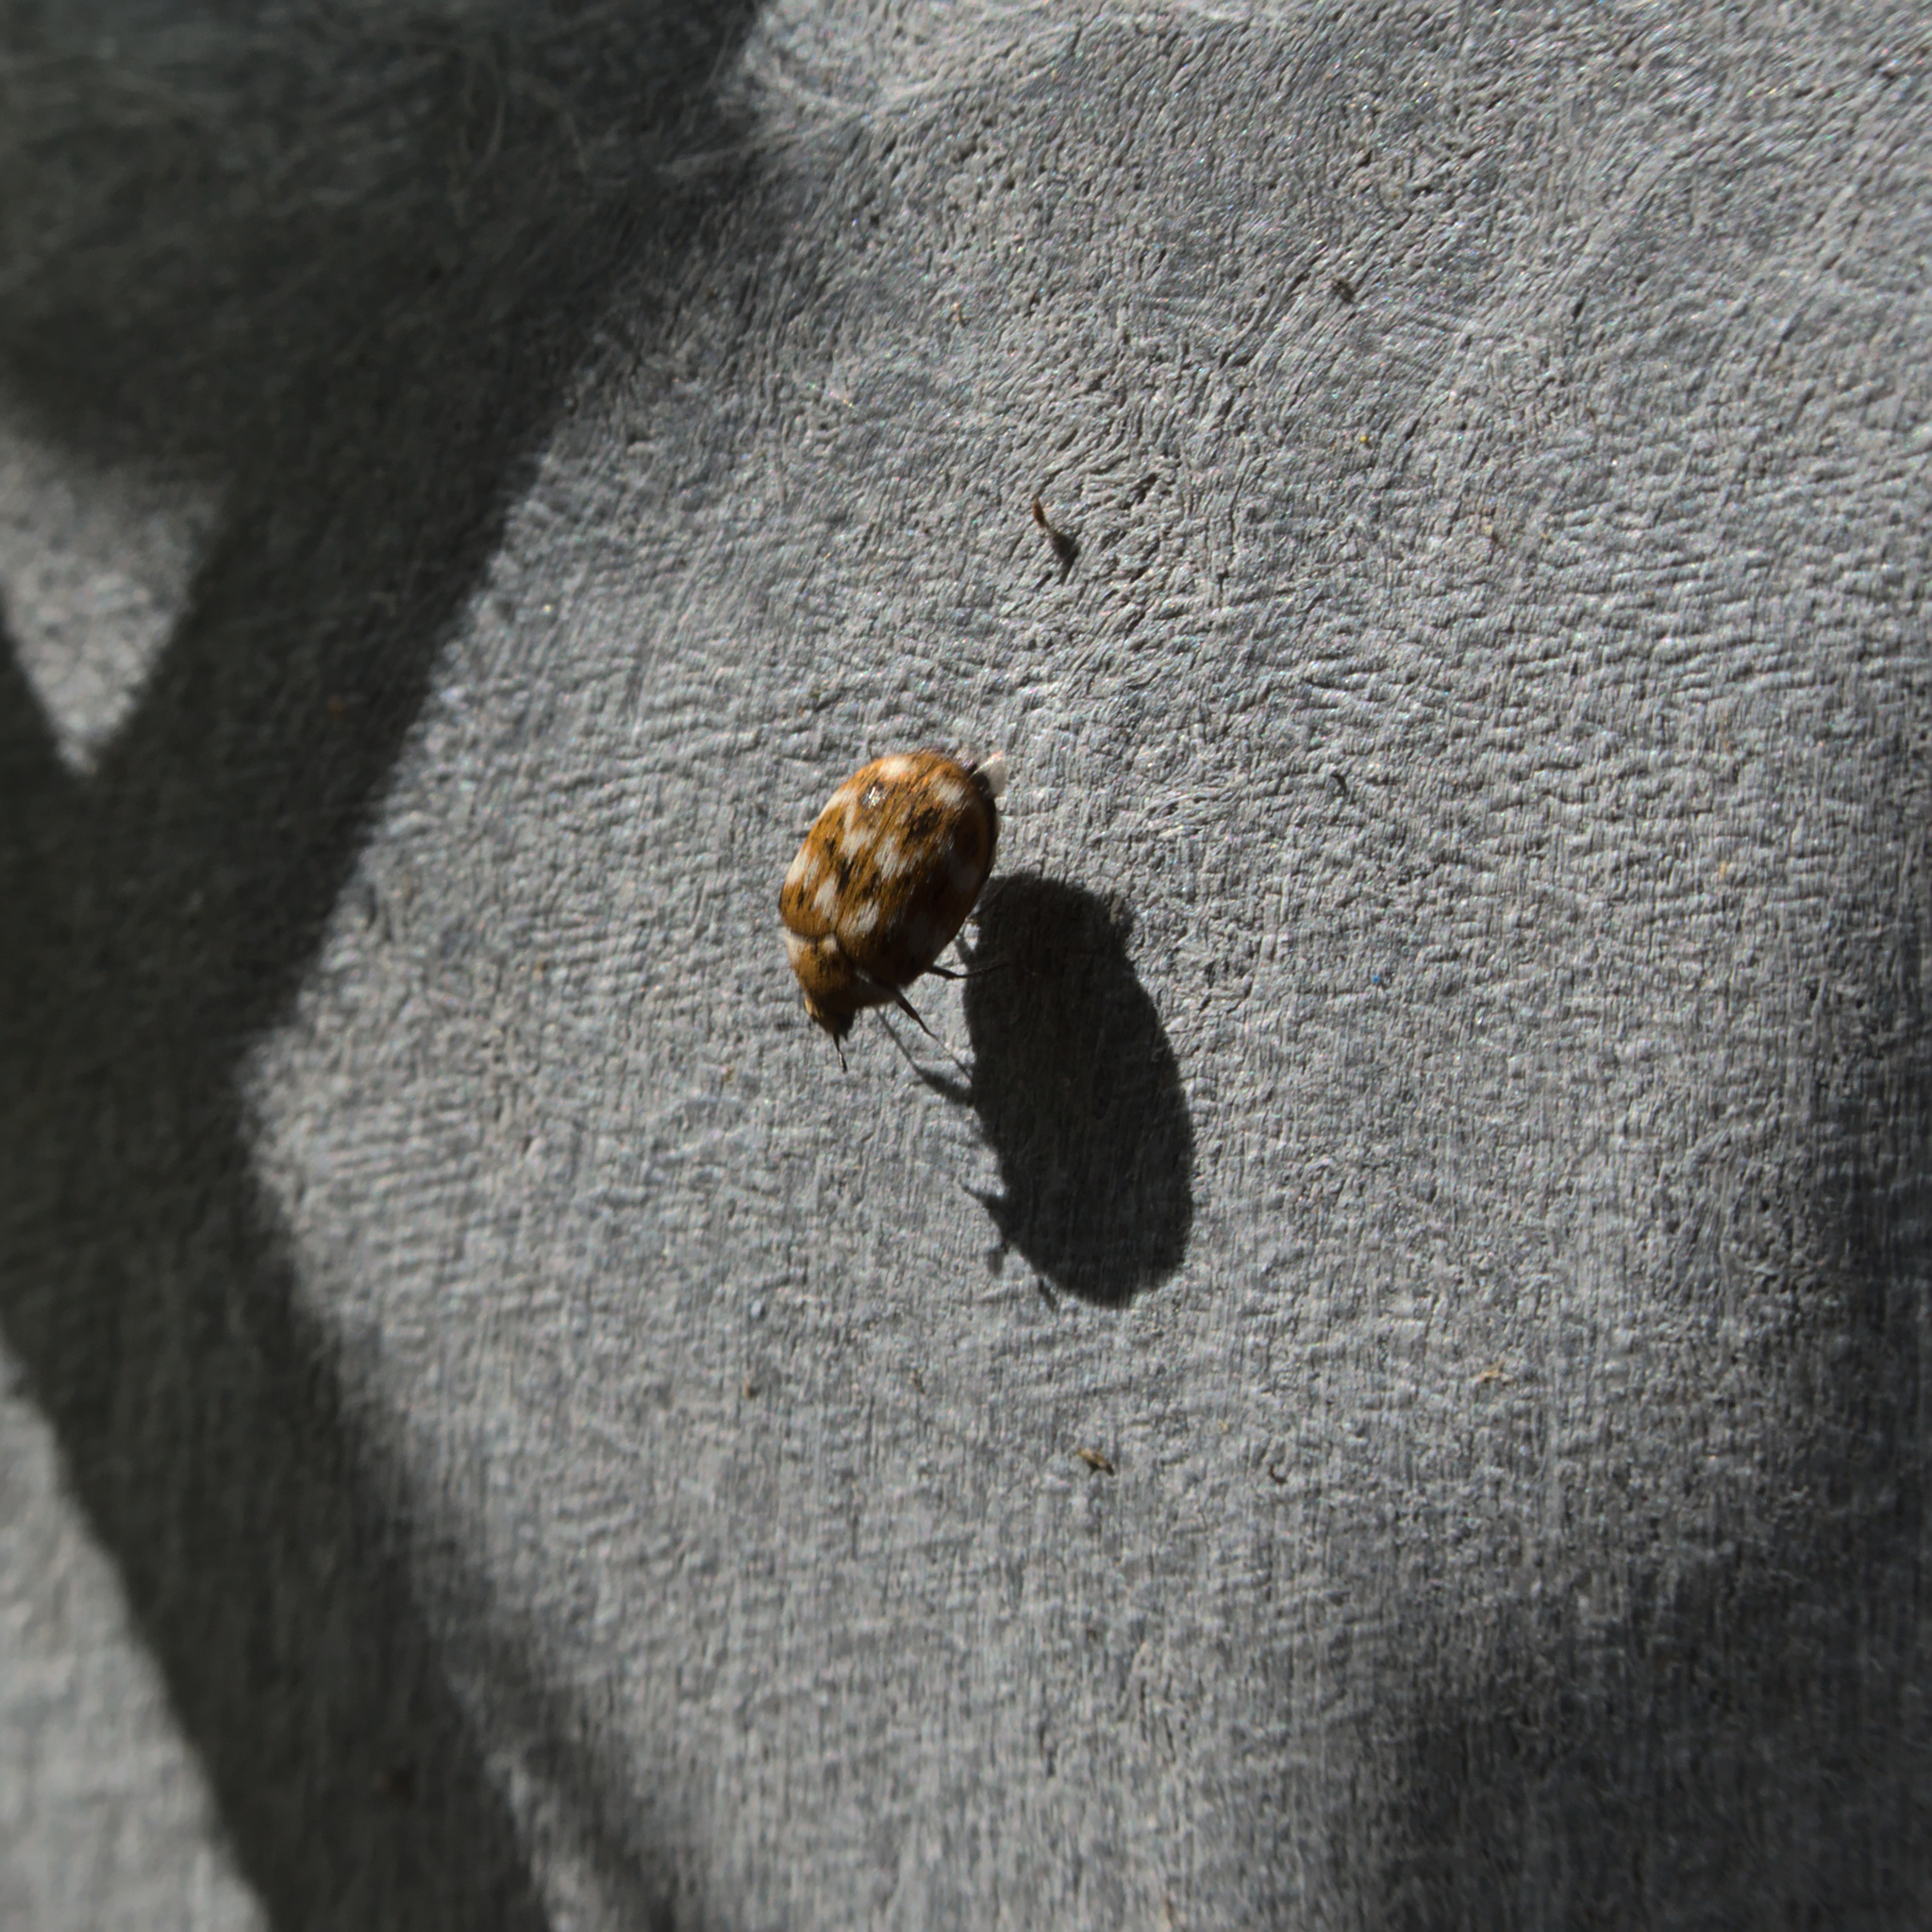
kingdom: Animalia
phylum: Arthropoda
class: Insecta
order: Coleoptera
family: Dermestidae
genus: Anthrenus
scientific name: Anthrenus verbasci
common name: Varied carpet beetle
